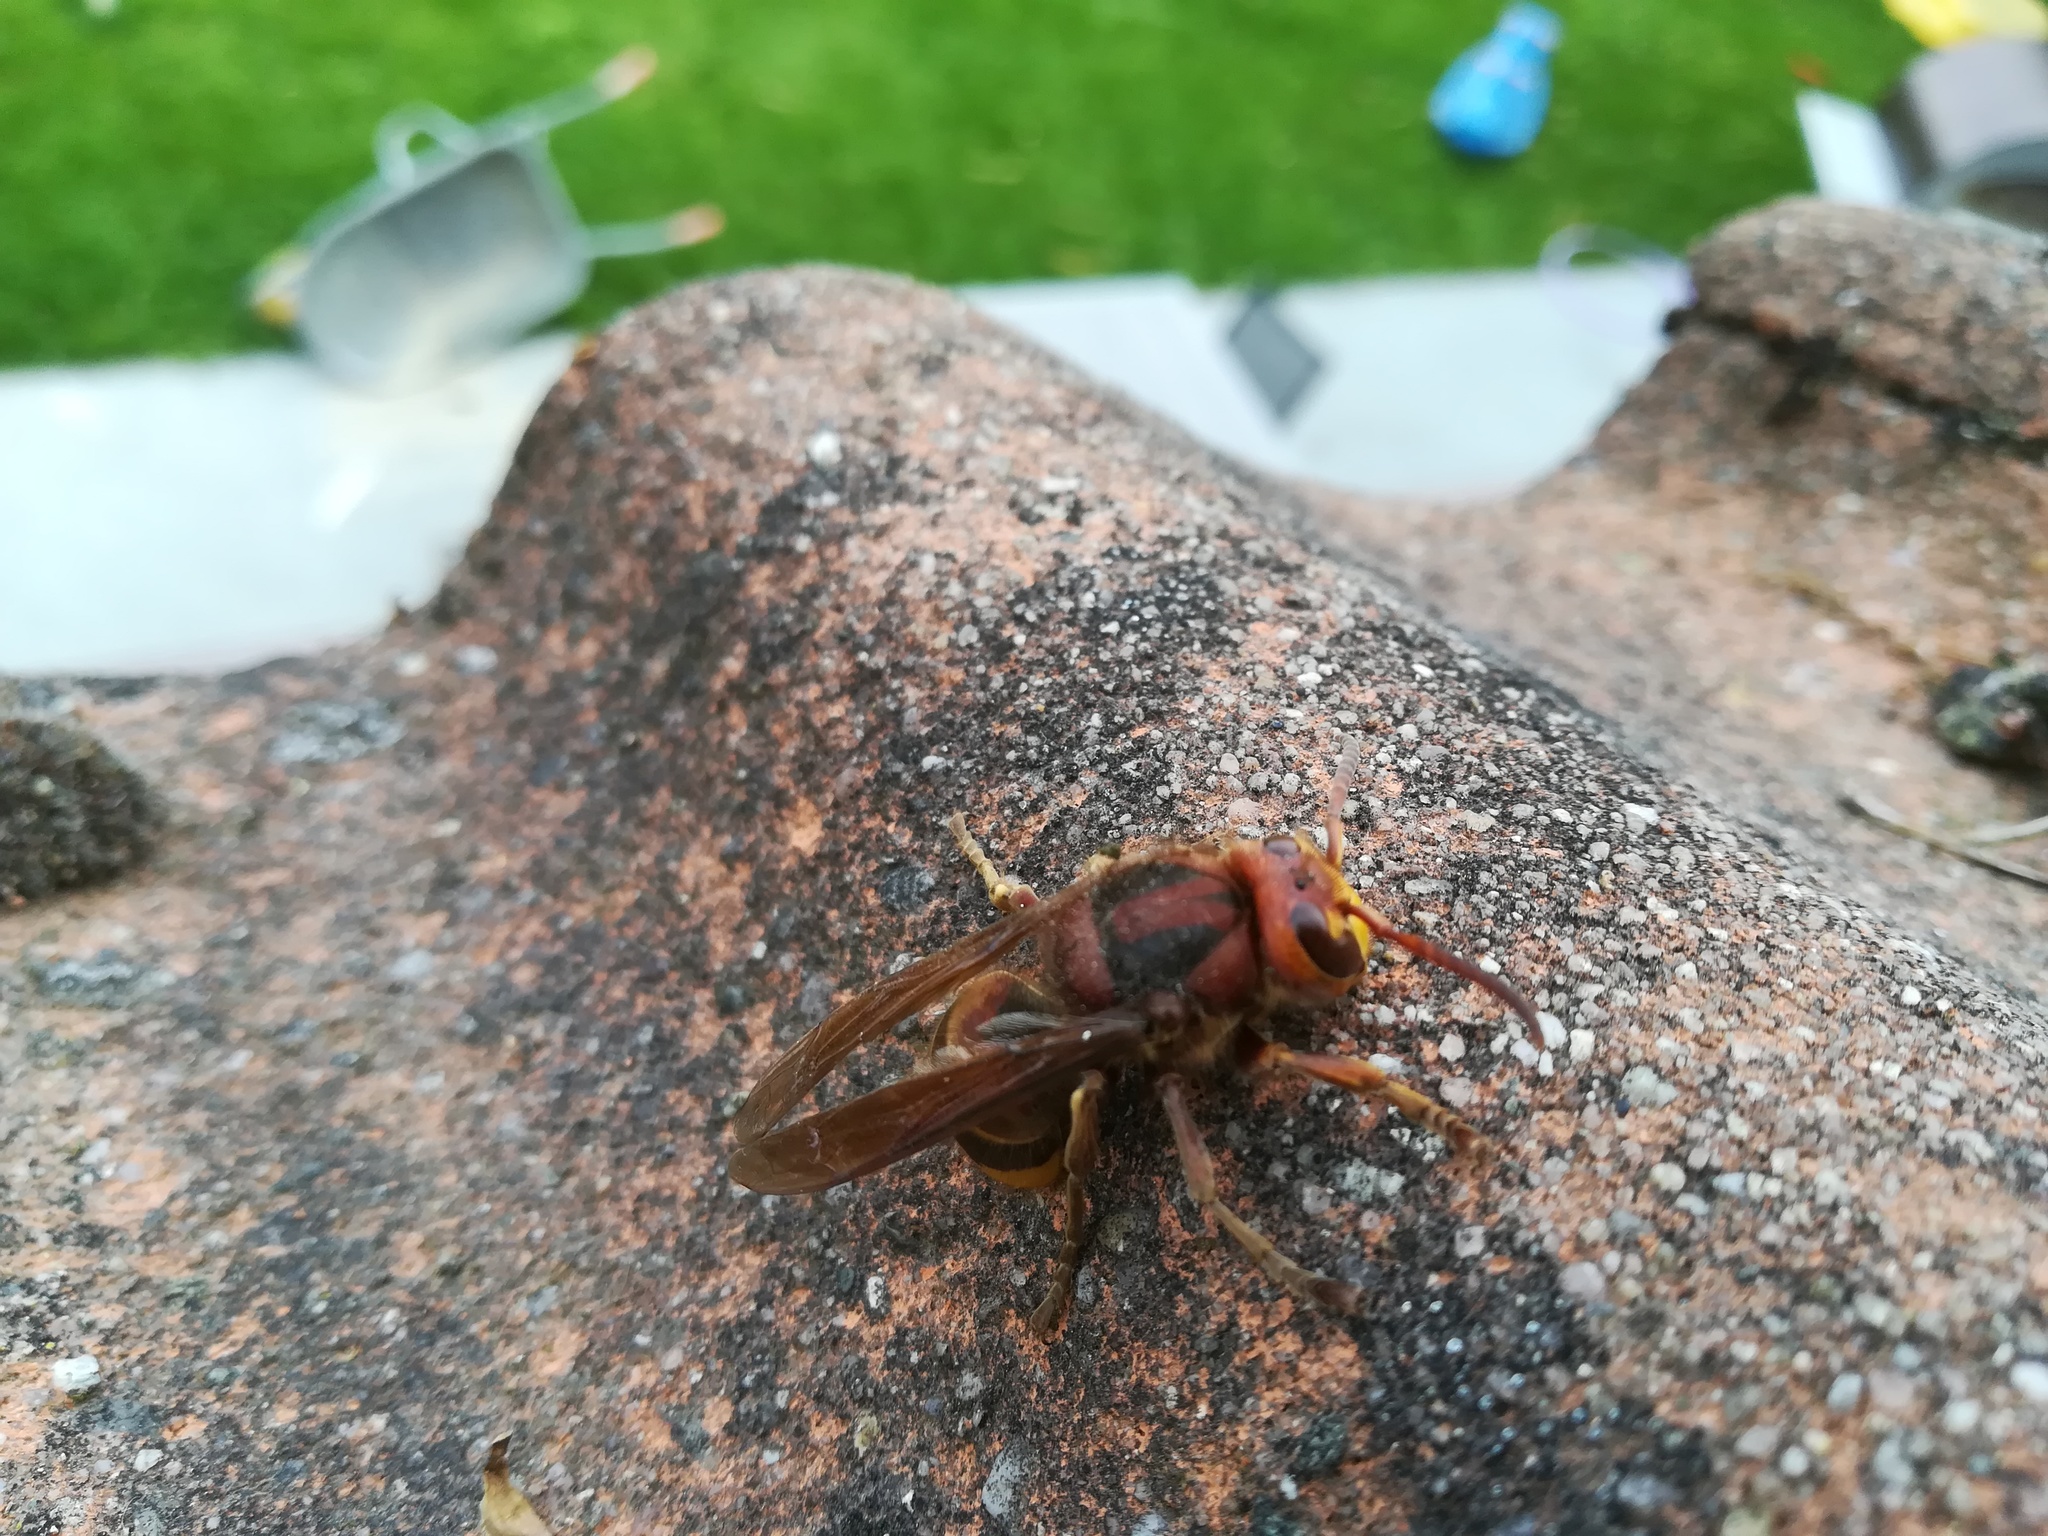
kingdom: Animalia
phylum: Arthropoda
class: Insecta
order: Hymenoptera
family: Vespidae
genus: Vespa
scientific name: Vespa crabro
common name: Hornet
